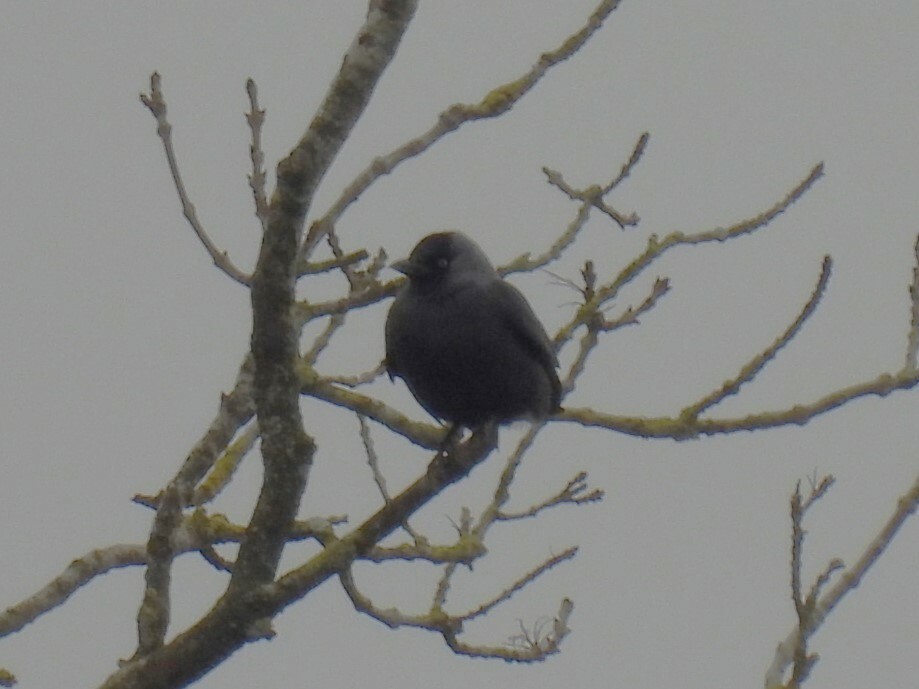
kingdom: Animalia
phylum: Chordata
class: Aves
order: Passeriformes
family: Corvidae
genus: Coloeus
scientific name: Coloeus monedula
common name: Western jackdaw
